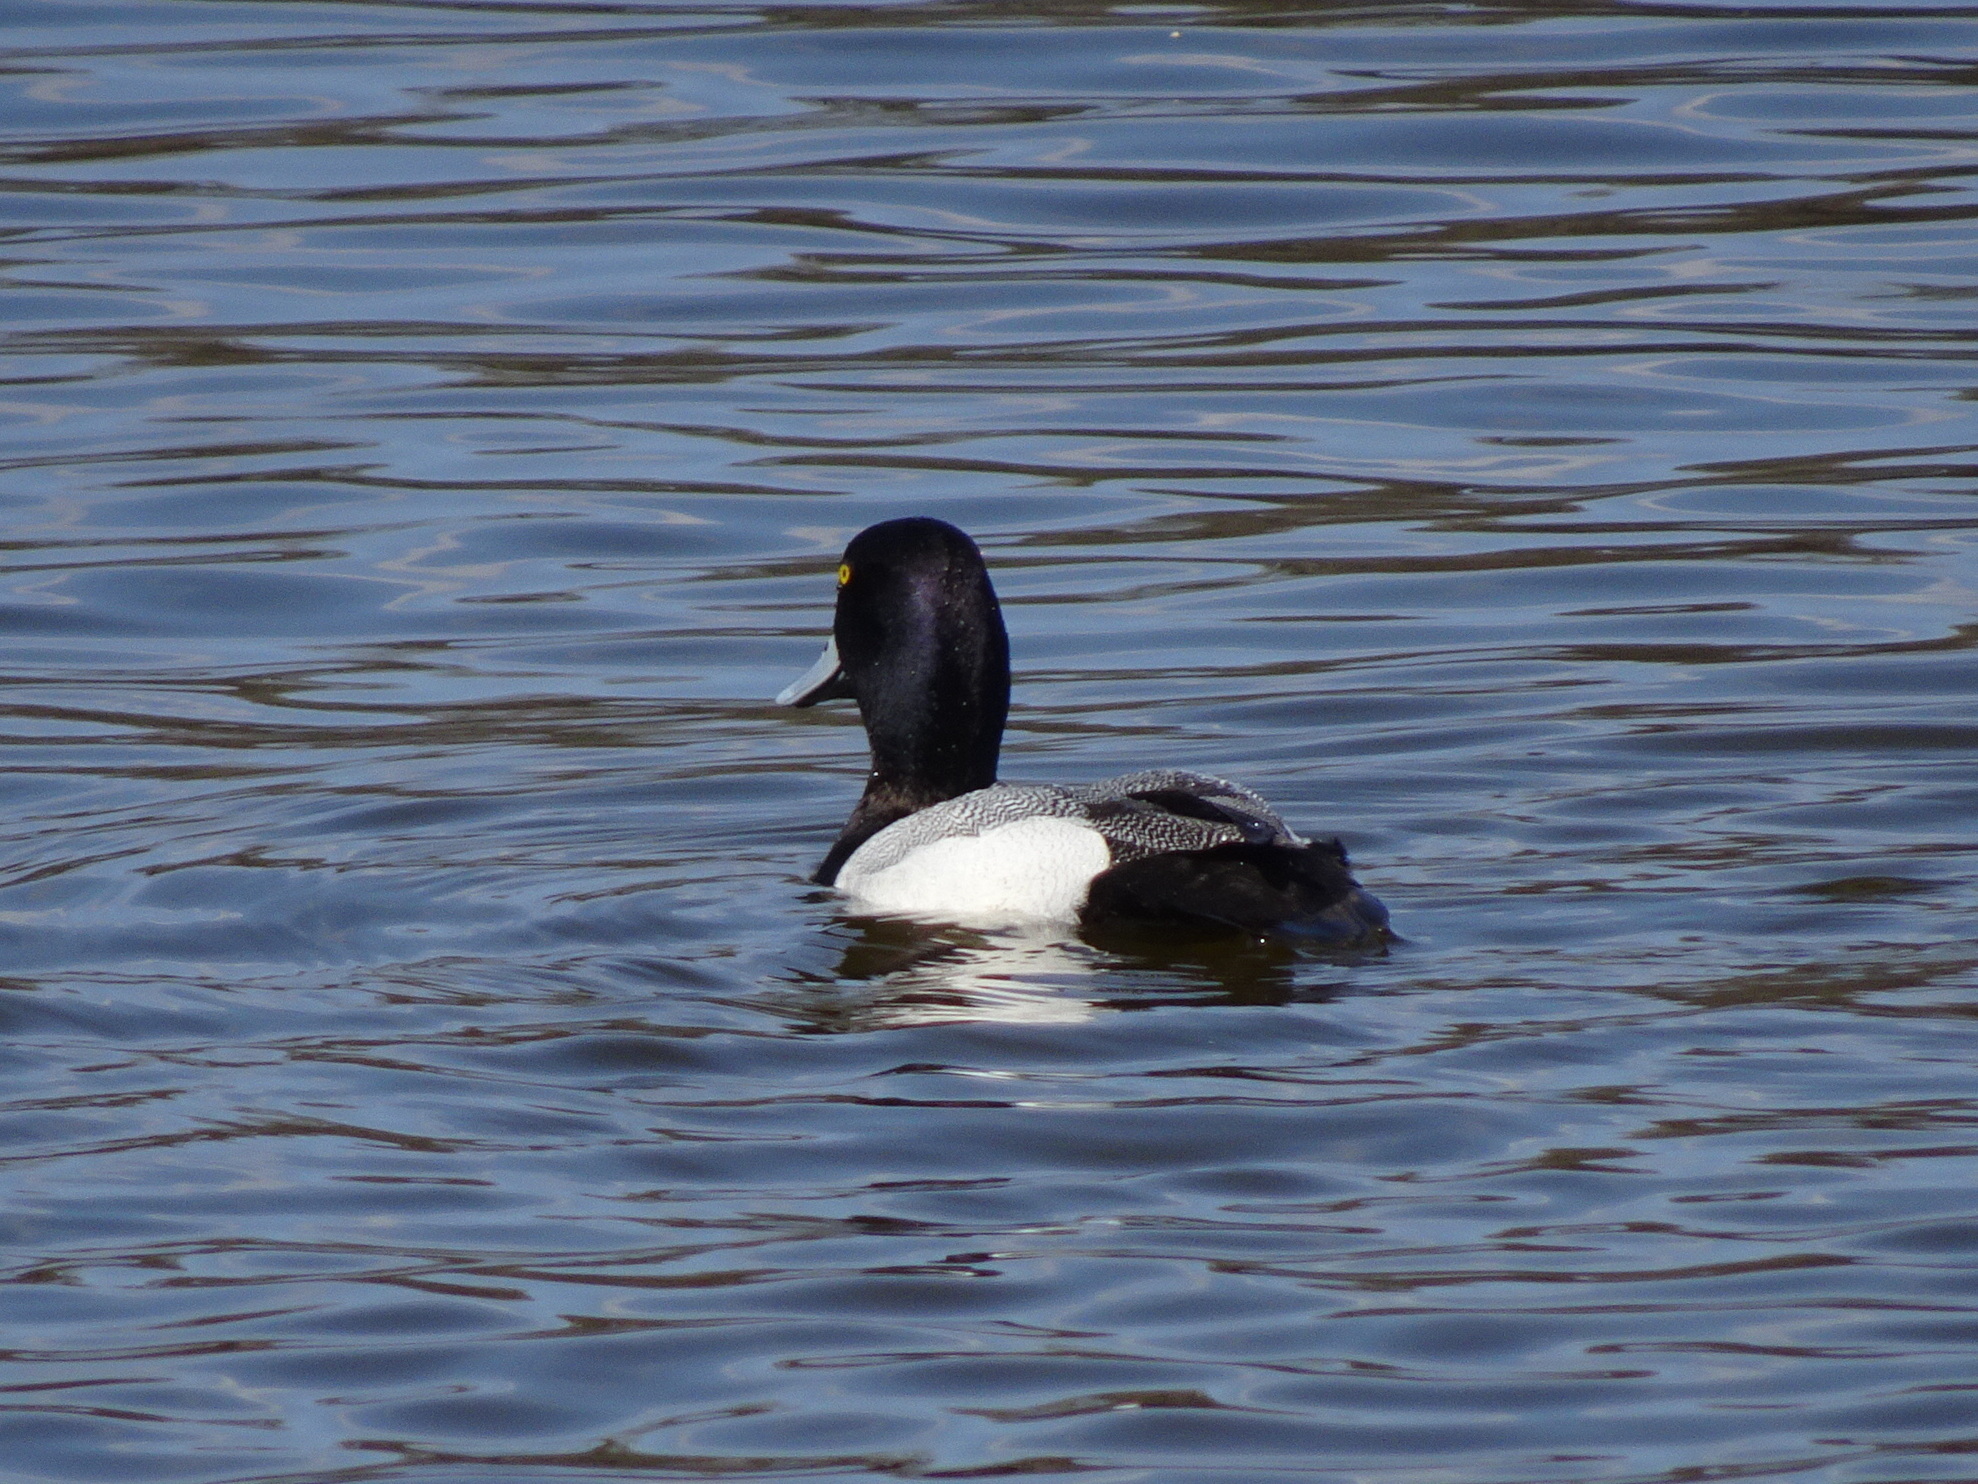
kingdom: Animalia
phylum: Chordata
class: Aves
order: Anseriformes
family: Anatidae
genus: Aythya
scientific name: Aythya affinis
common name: Lesser scaup
